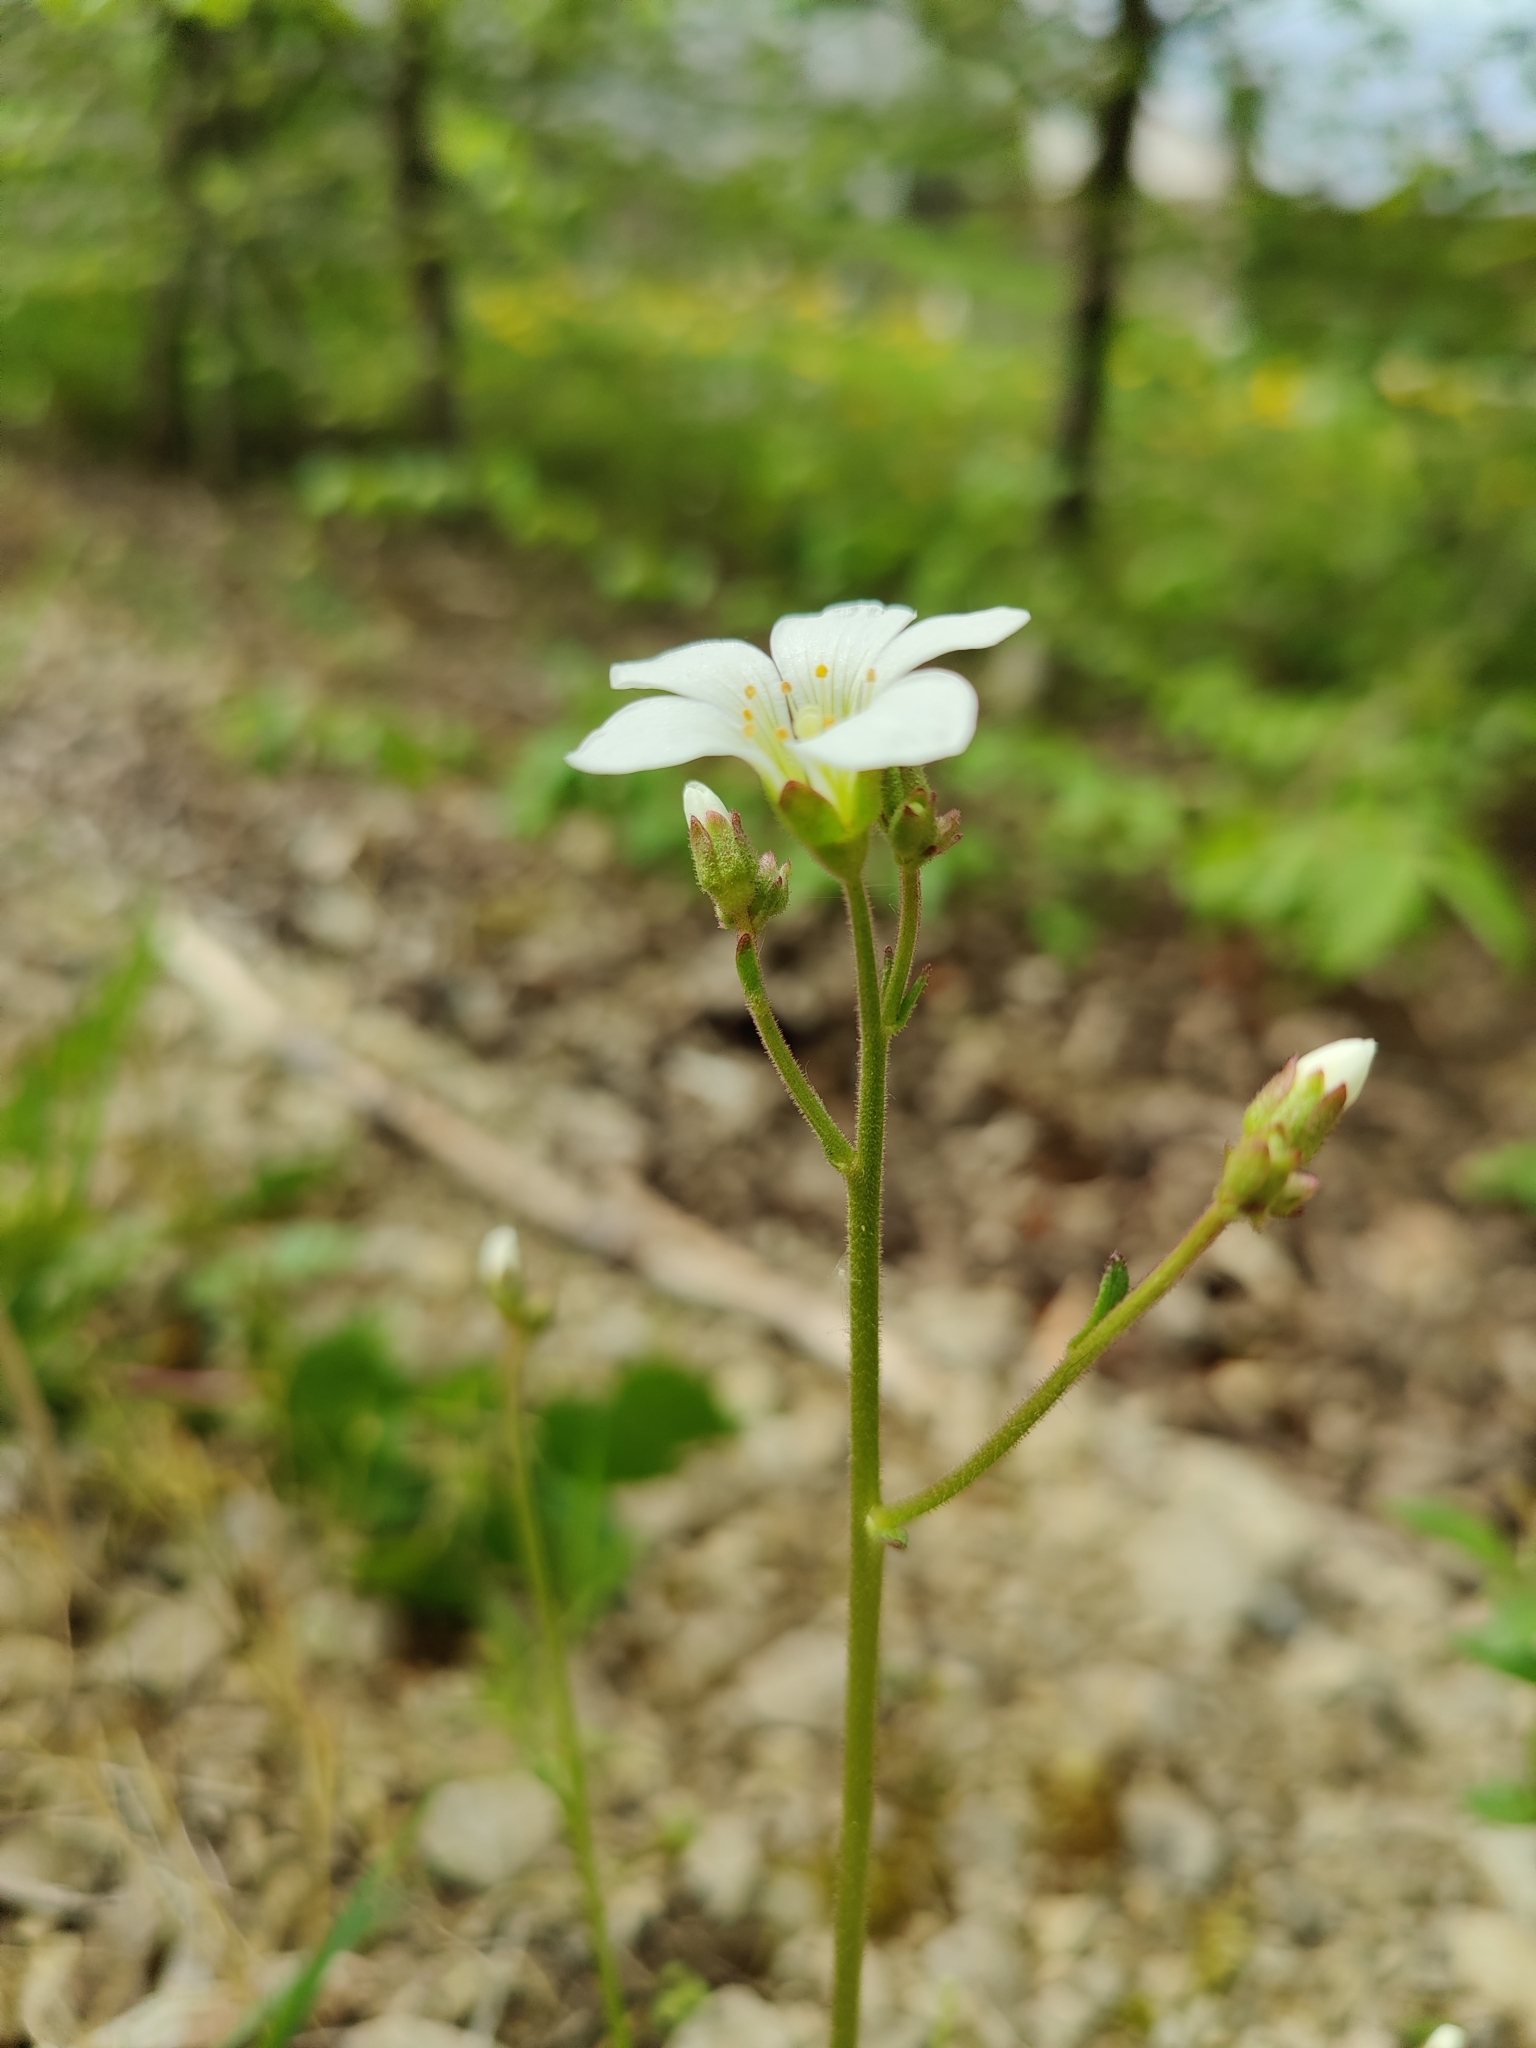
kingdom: Plantae
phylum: Tracheophyta
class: Magnoliopsida
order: Saxifragales
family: Saxifragaceae
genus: Saxifraga
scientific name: Saxifraga granulata
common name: Meadow saxifrage
